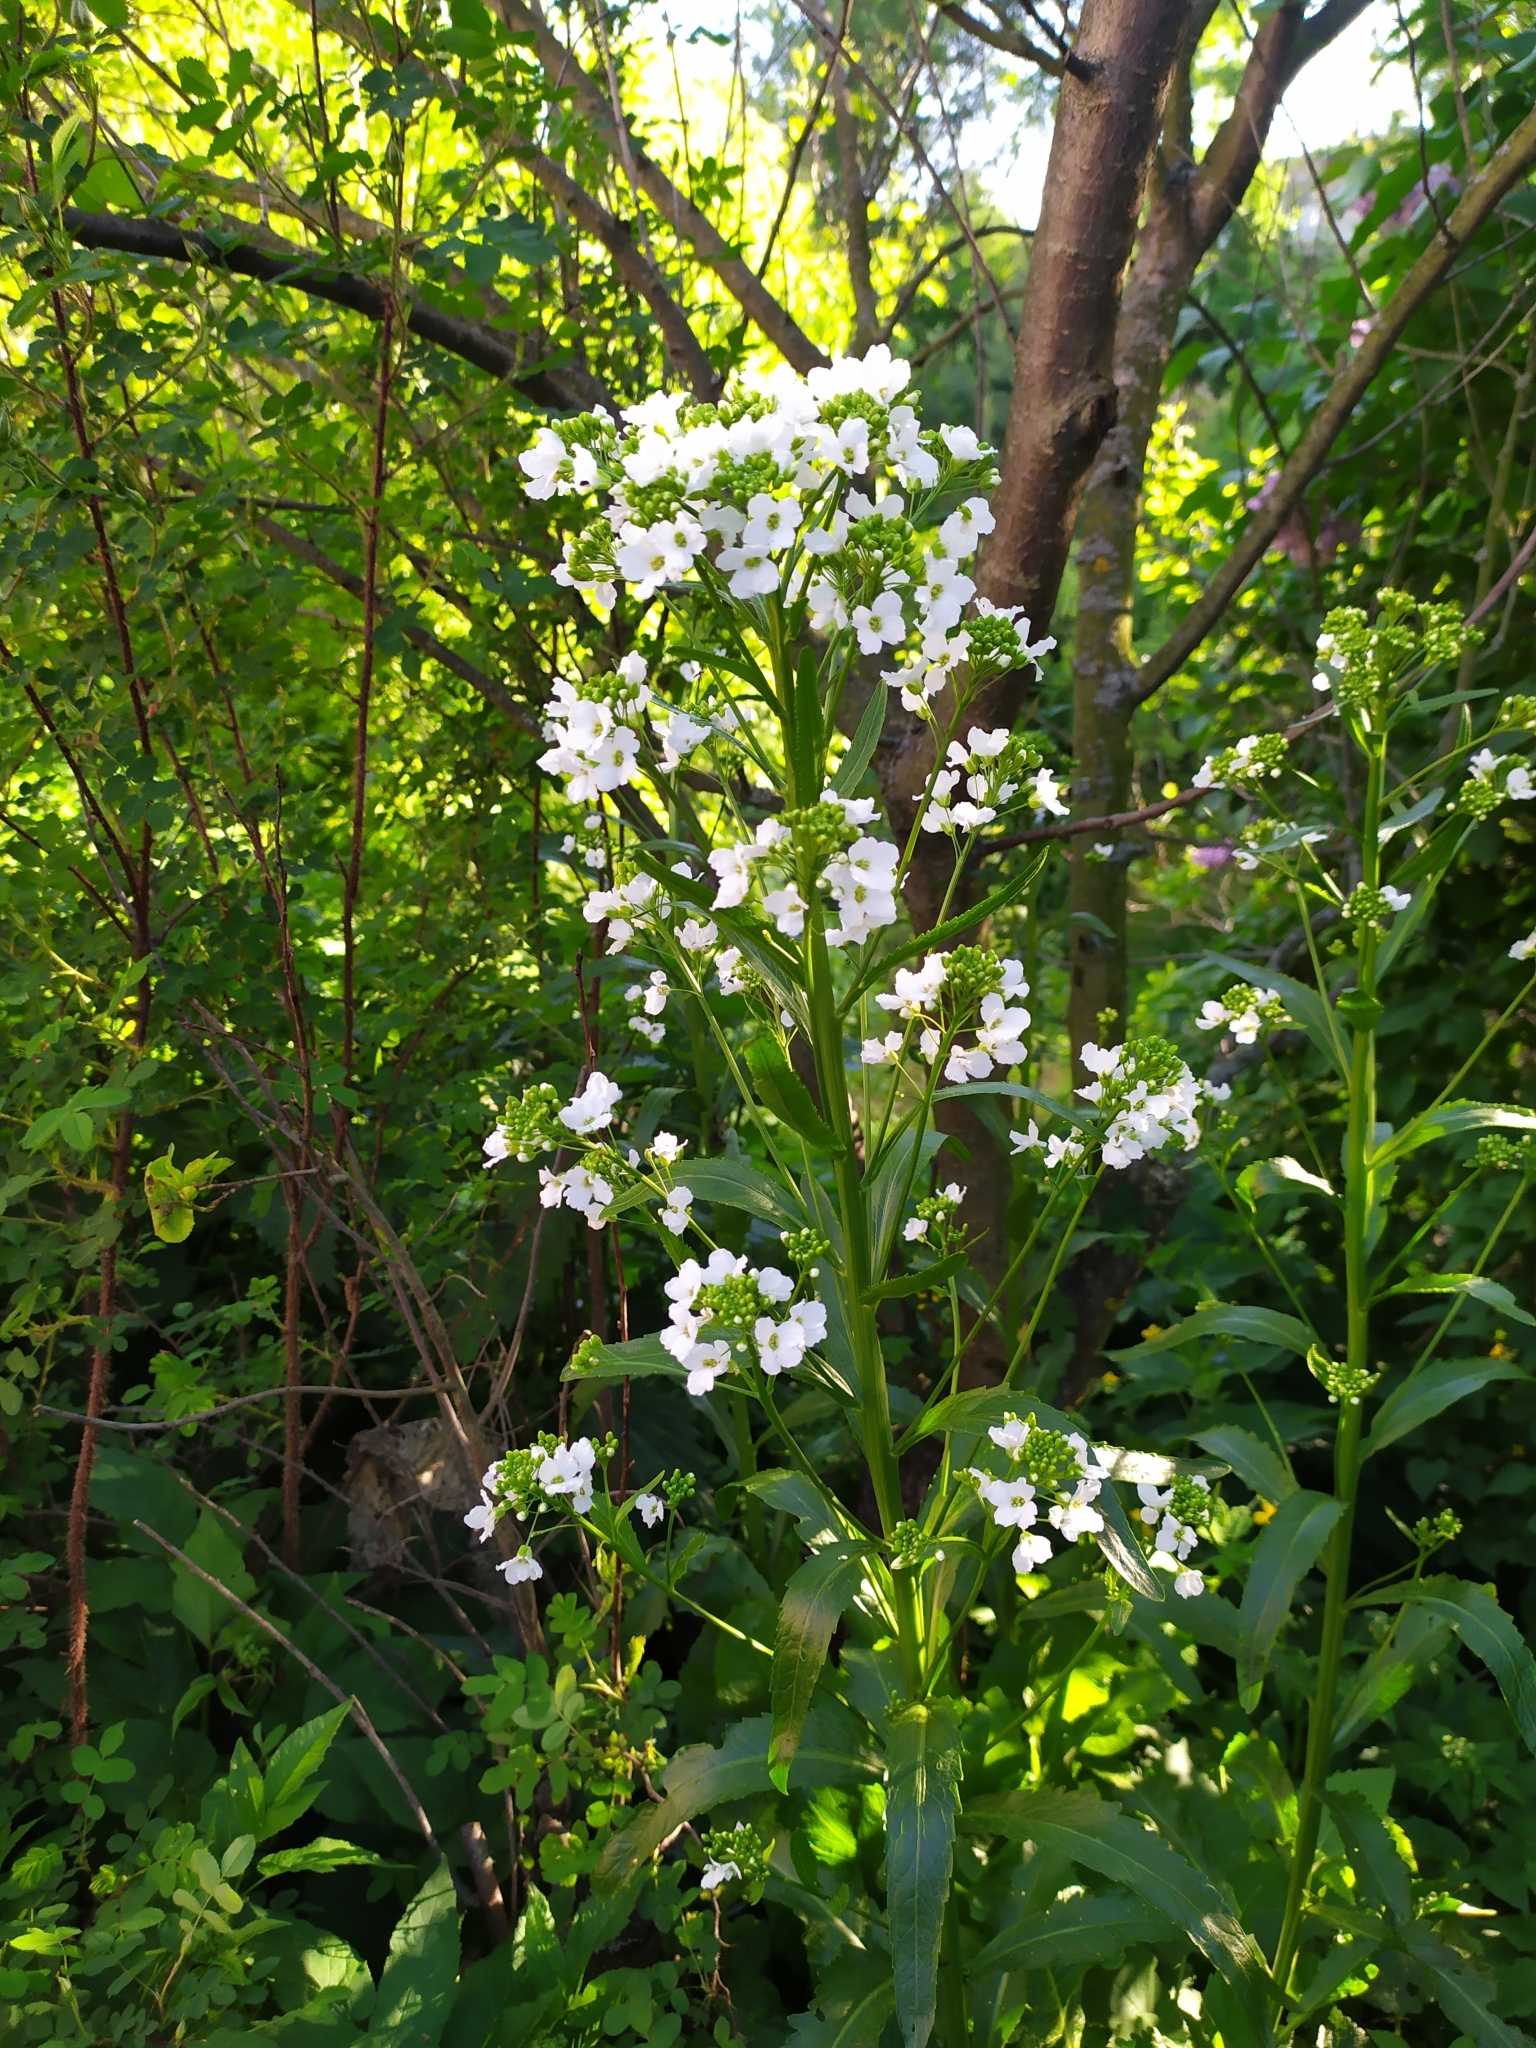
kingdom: Plantae
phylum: Tracheophyta
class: Magnoliopsida
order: Brassicales
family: Brassicaceae
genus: Armoracia
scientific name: Armoracia rusticana
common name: Horseradish
